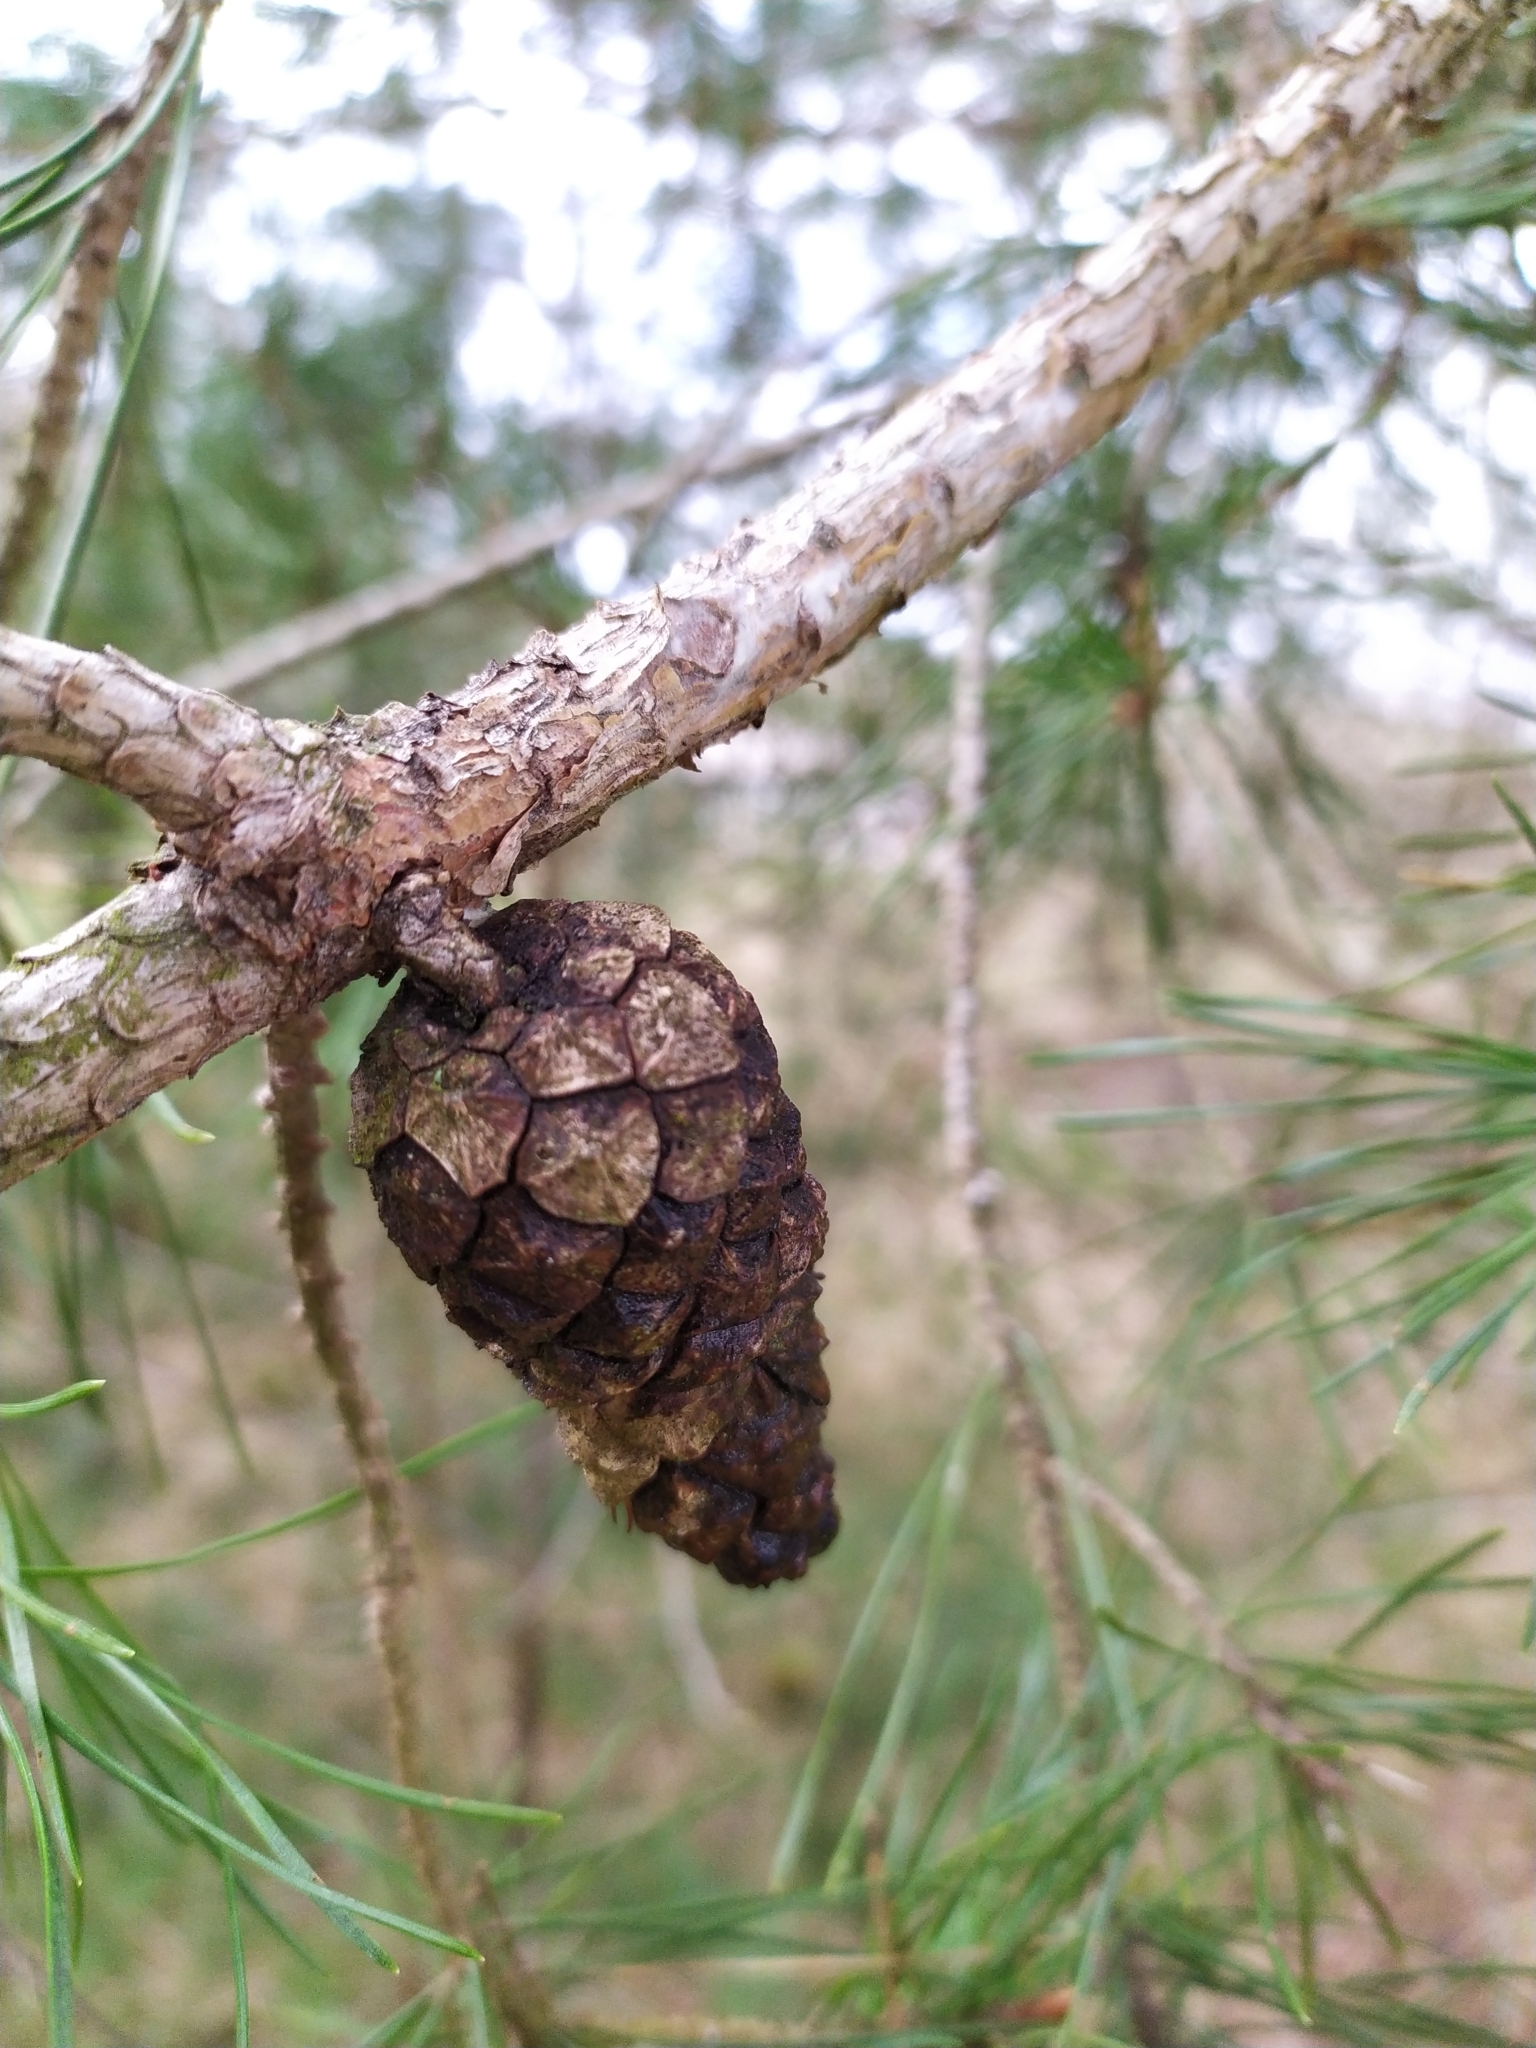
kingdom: Plantae
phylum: Tracheophyta
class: Pinopsida
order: Pinales
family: Pinaceae
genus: Pinus
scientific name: Pinus sylvestris
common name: Scots pine
